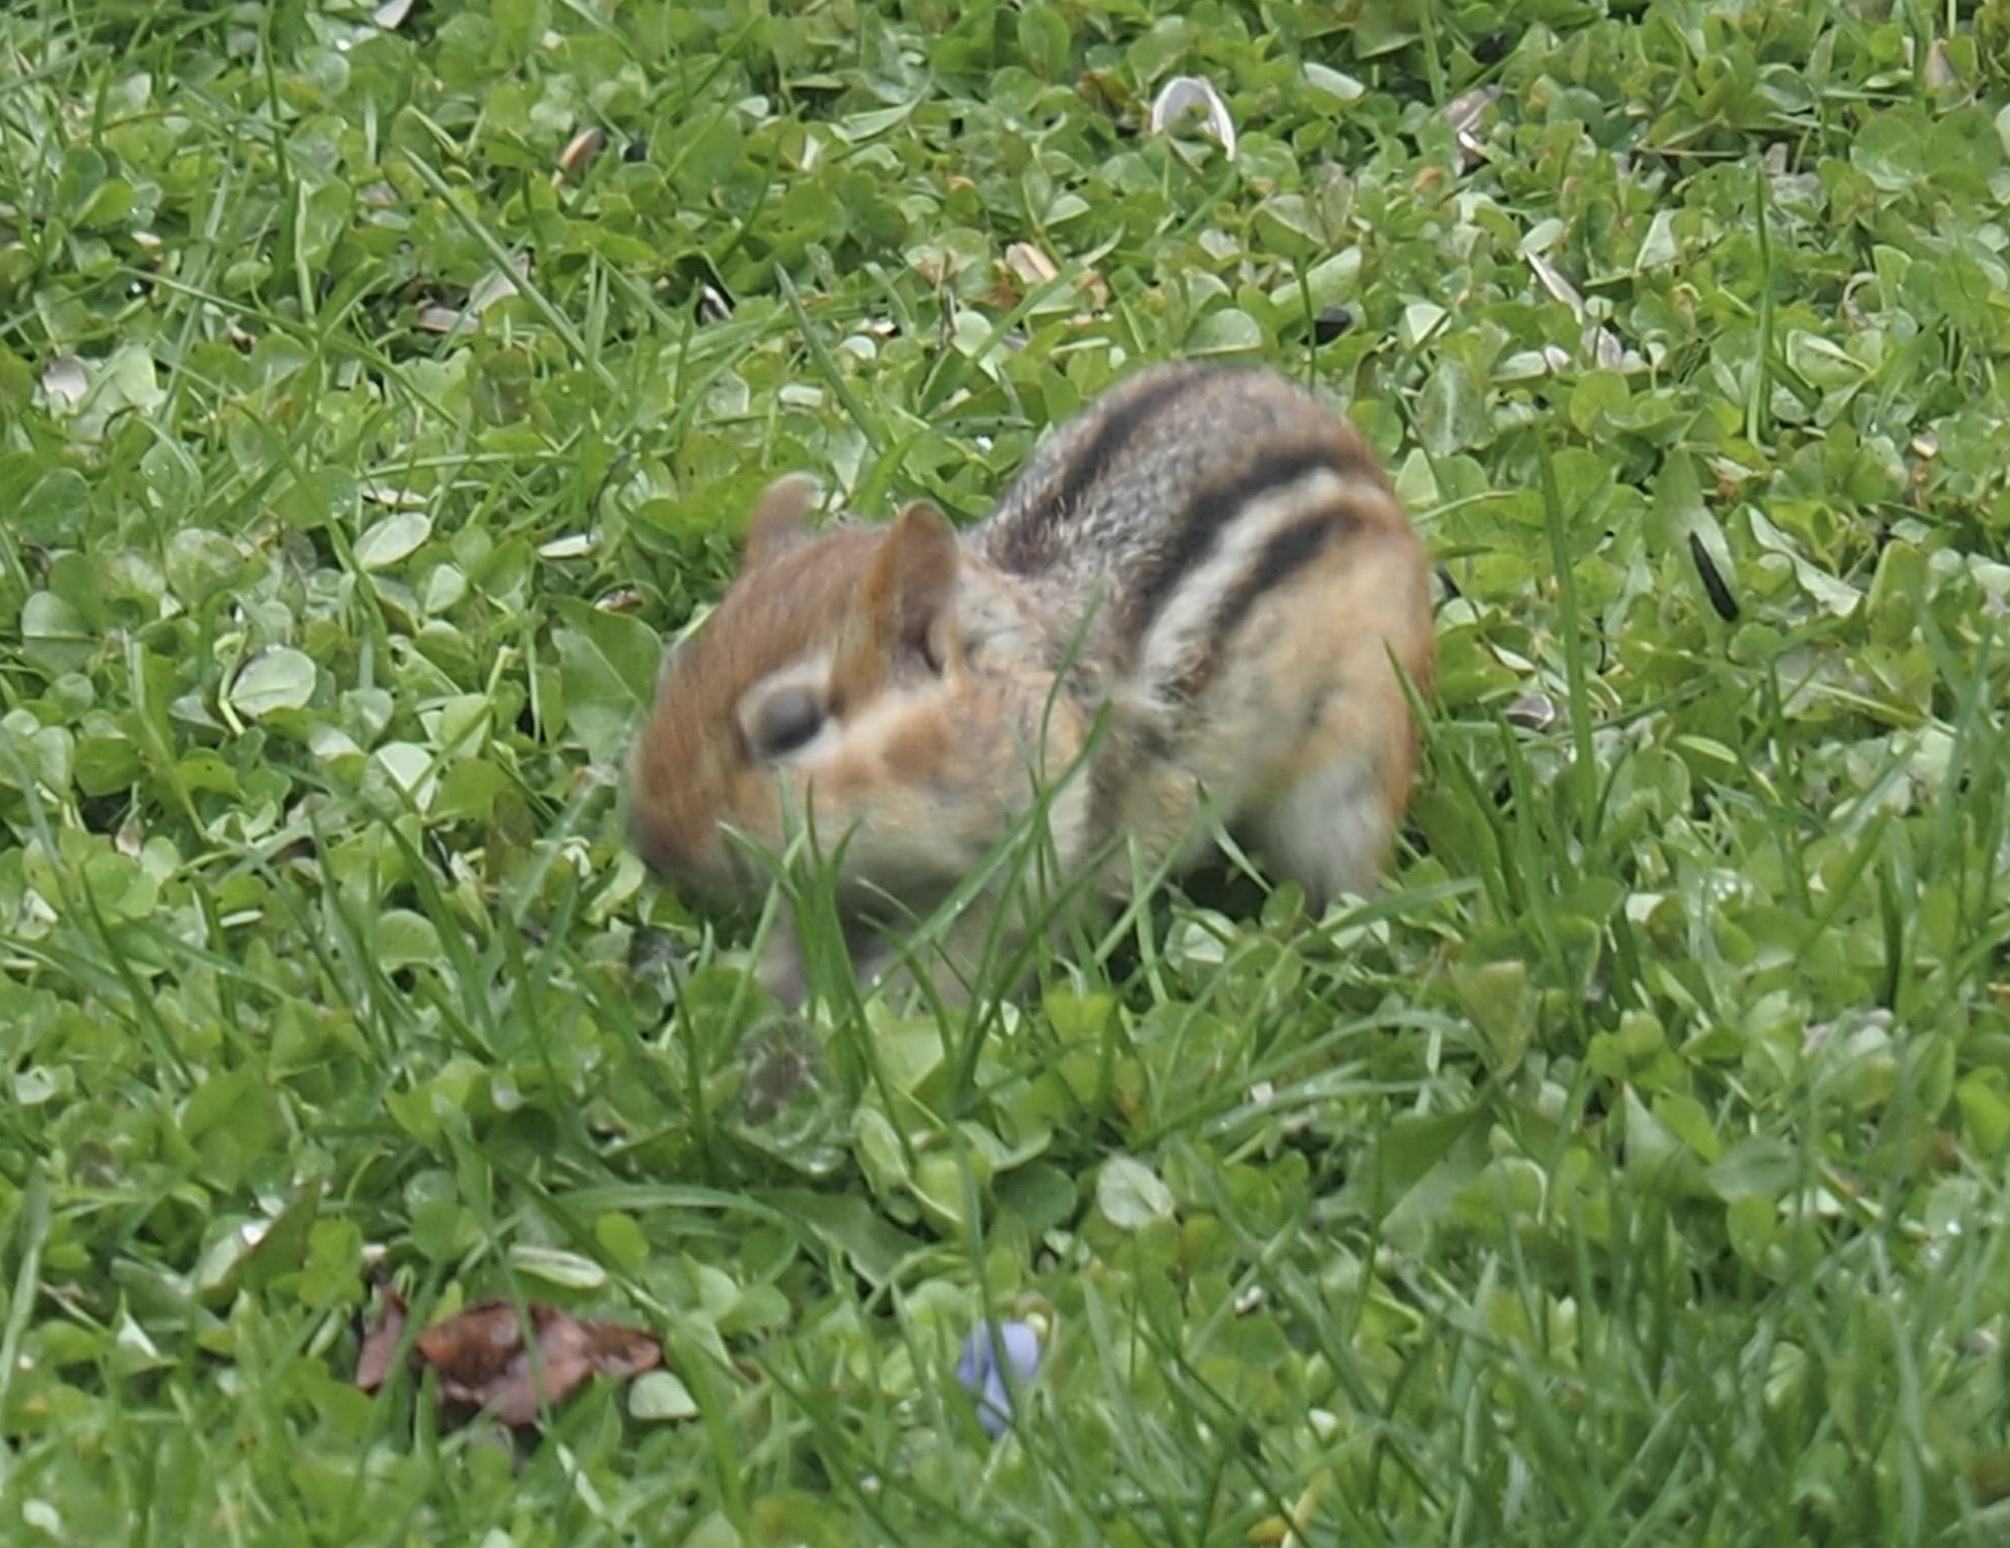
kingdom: Animalia
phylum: Chordata
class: Mammalia
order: Rodentia
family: Sciuridae
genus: Tamias
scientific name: Tamias striatus
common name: Eastern chipmunk
